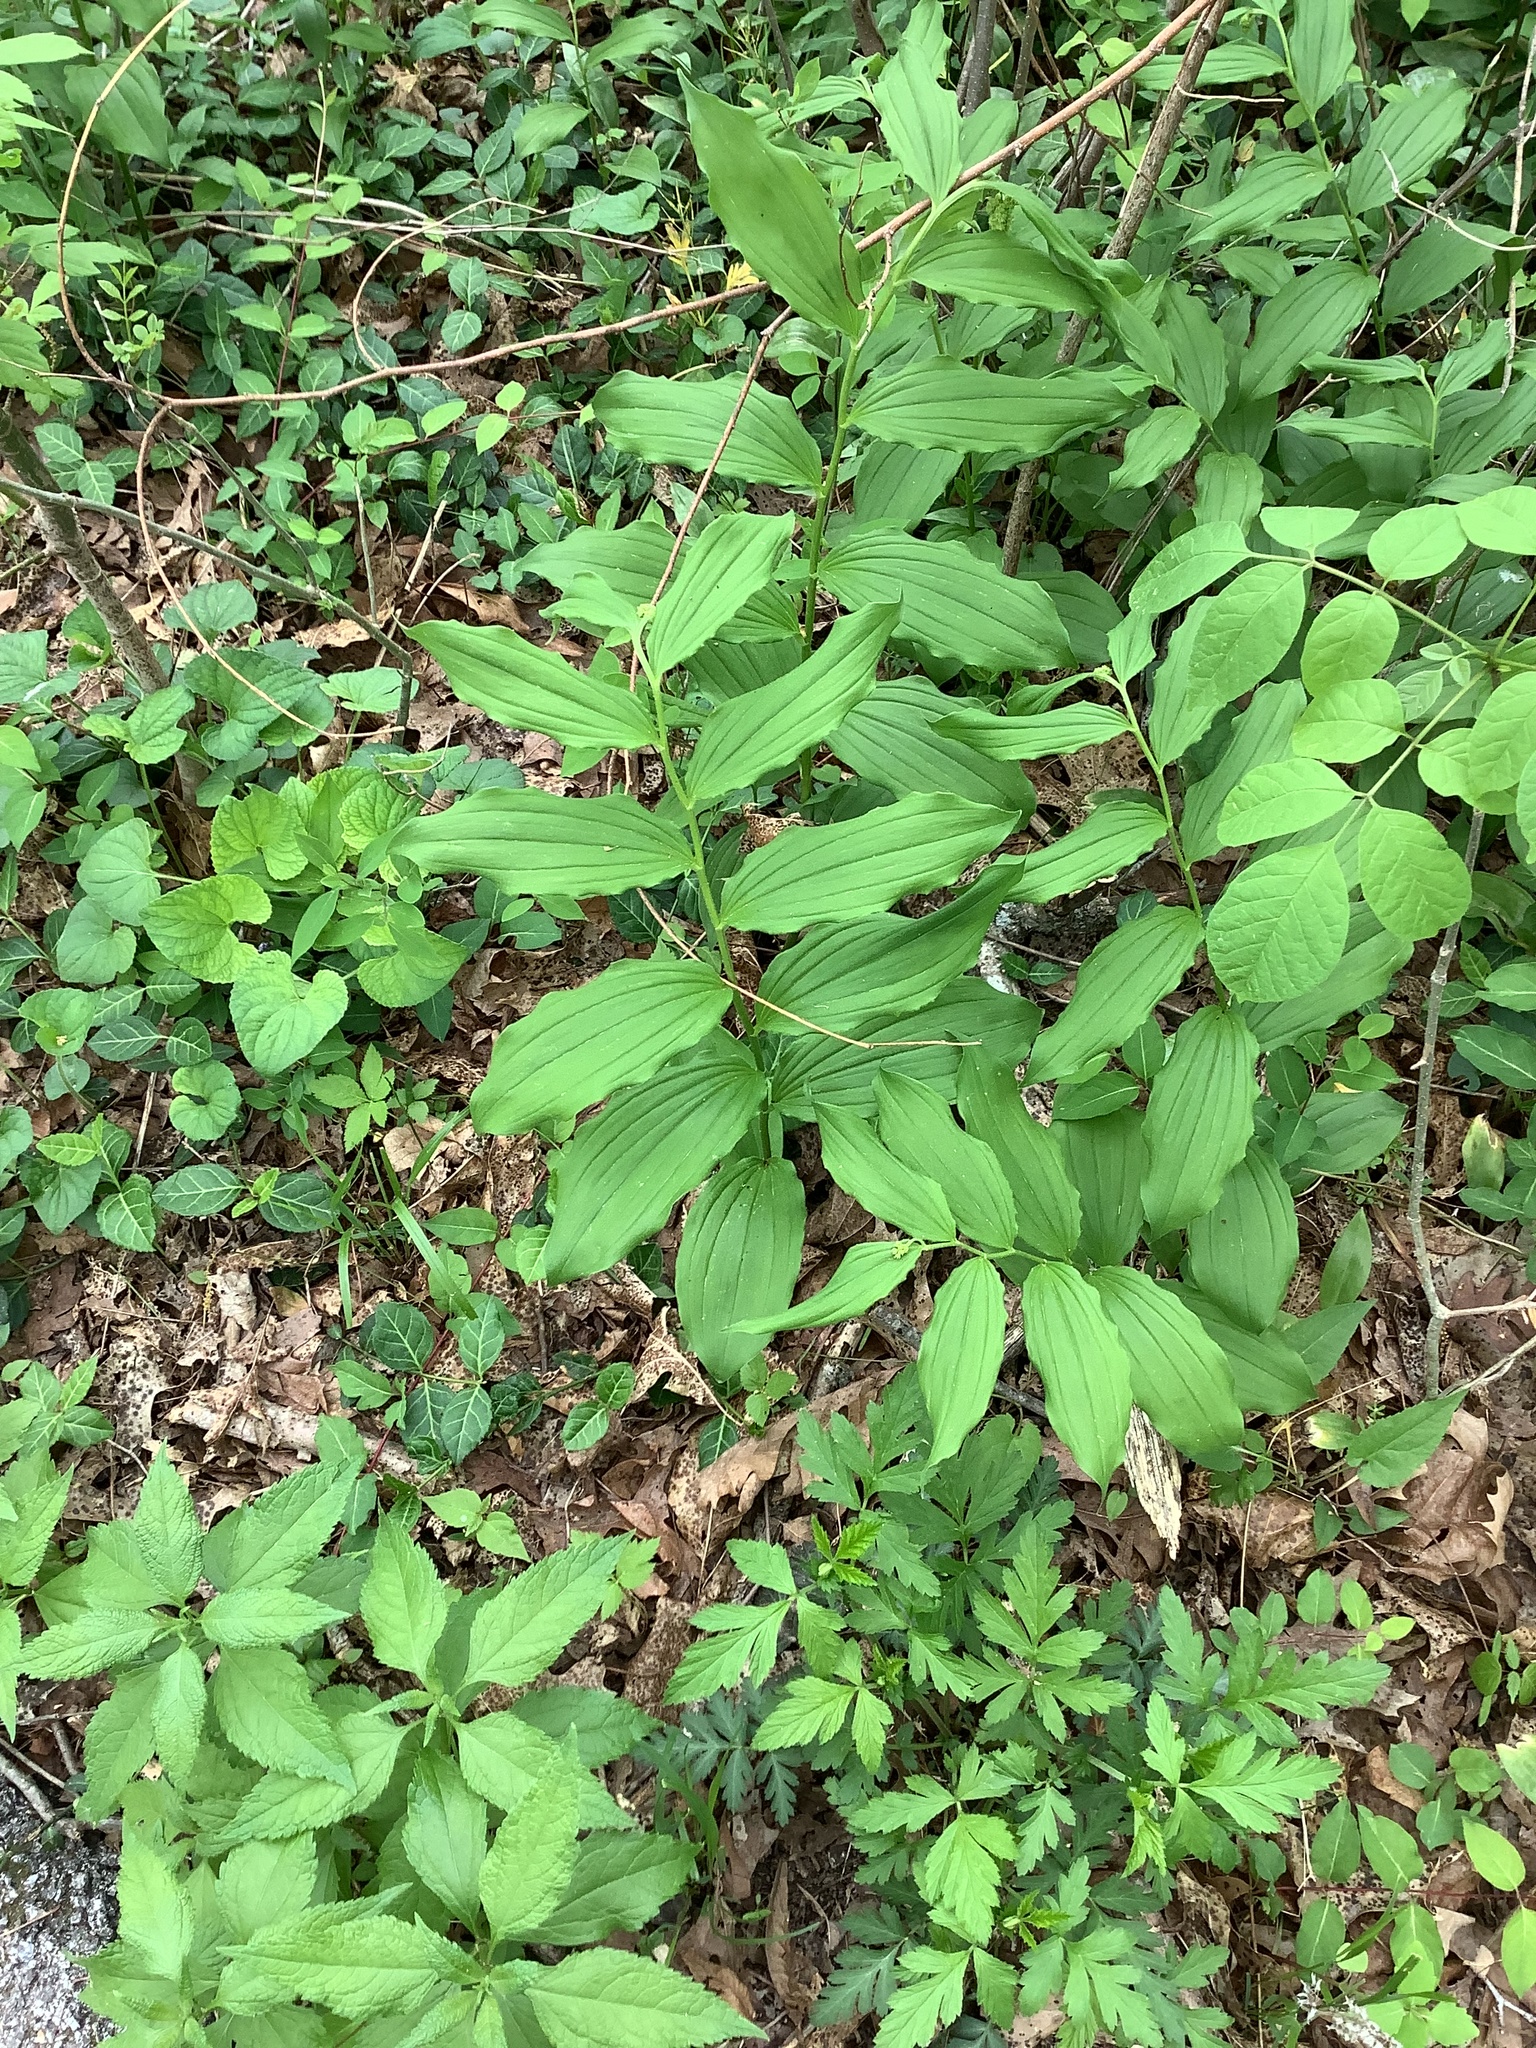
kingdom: Plantae
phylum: Tracheophyta
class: Liliopsida
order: Asparagales
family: Asparagaceae
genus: Maianthemum
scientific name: Maianthemum racemosum
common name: False spikenard
